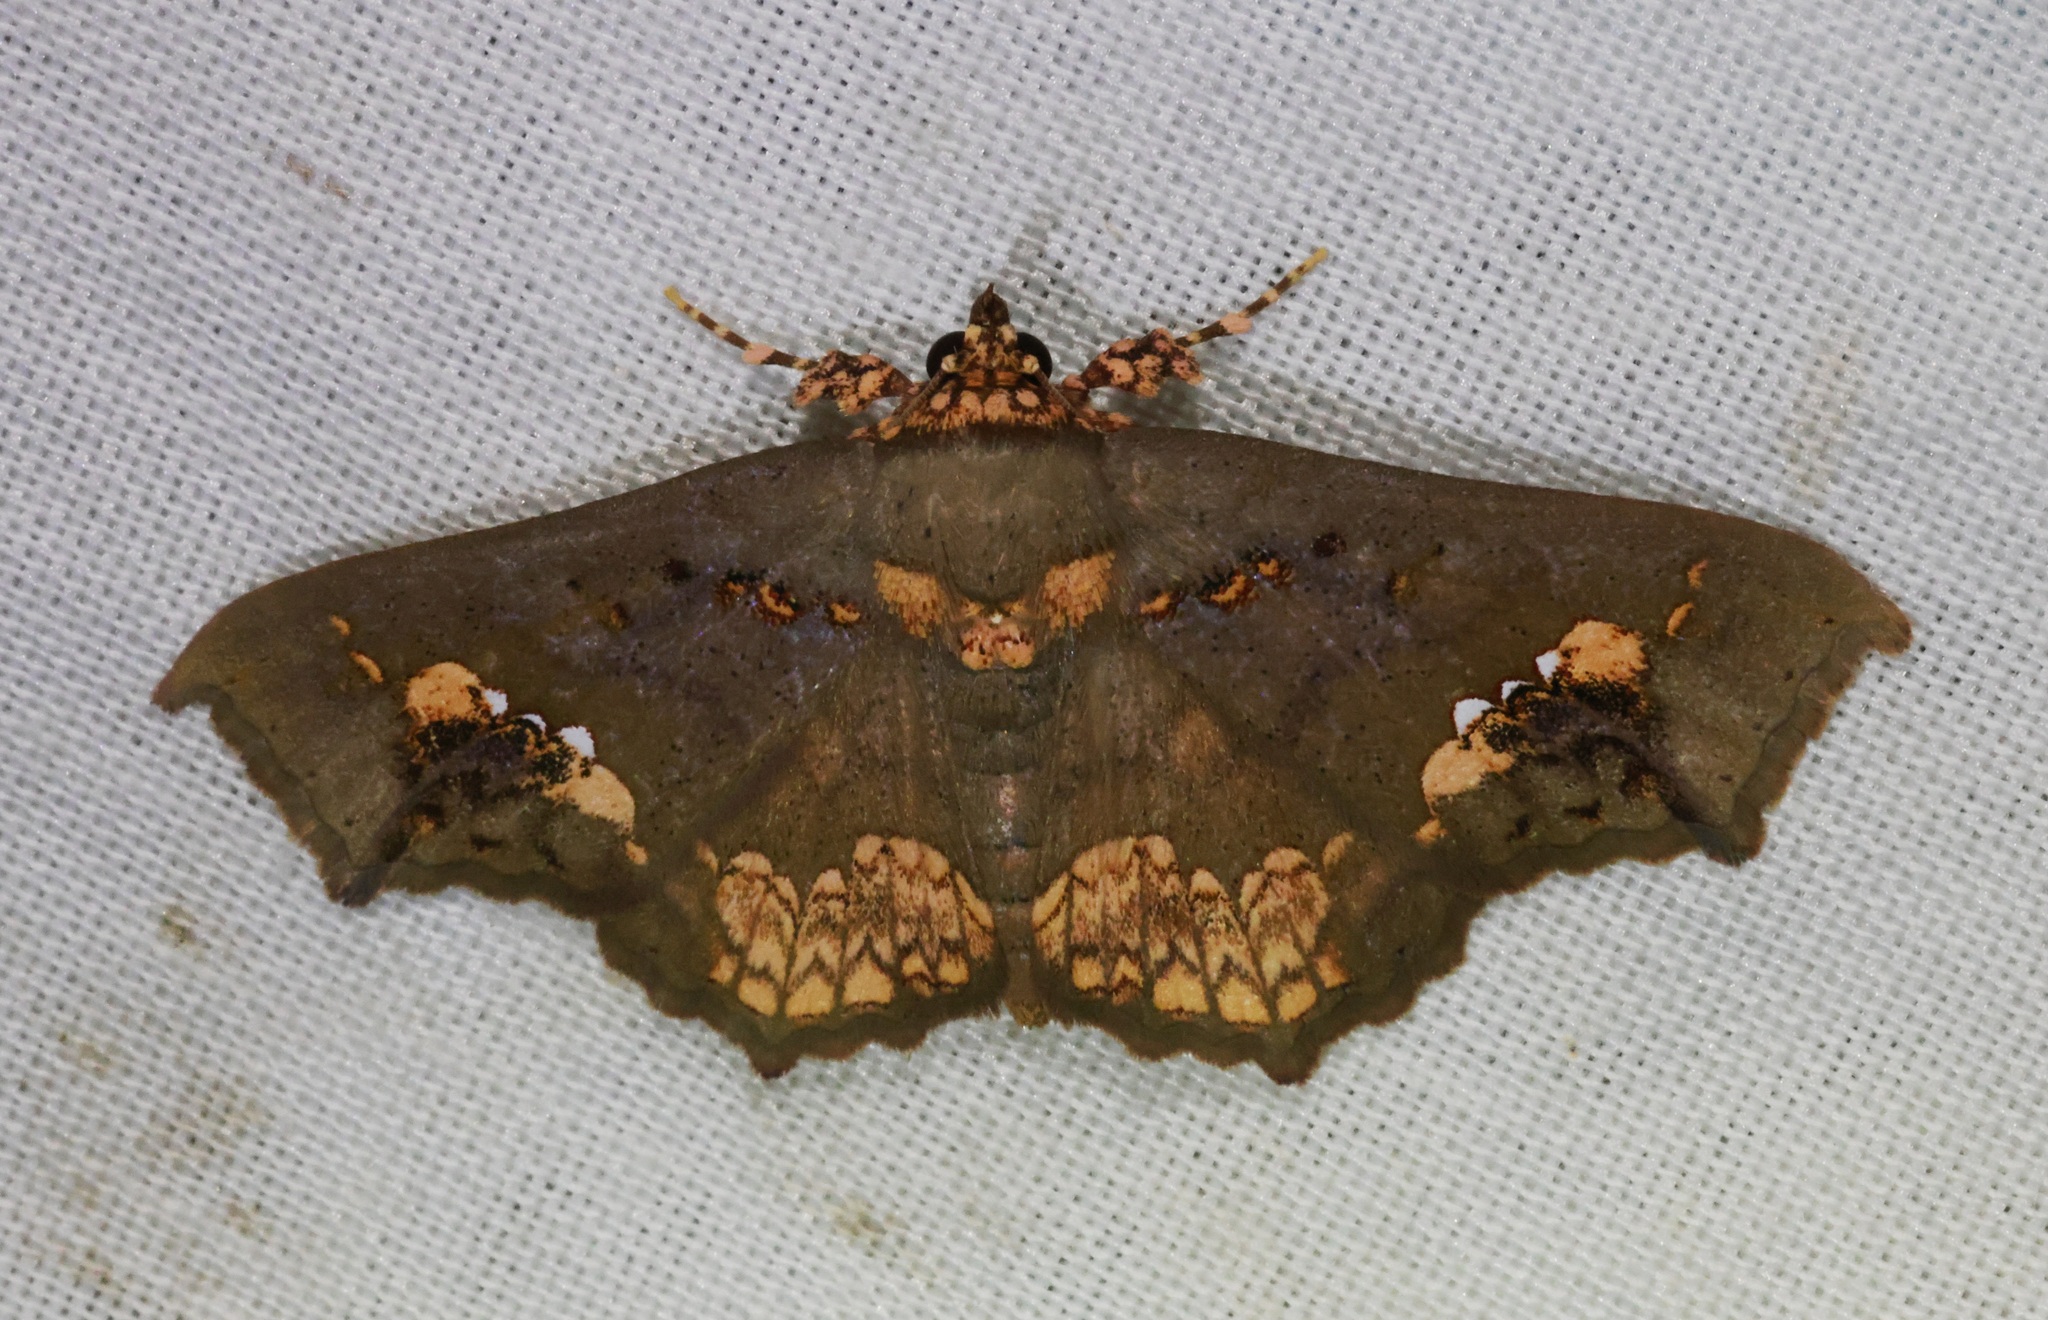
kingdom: Animalia
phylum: Arthropoda
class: Insecta
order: Lepidoptera
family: Erebidae
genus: Lopharthrum
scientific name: Lopharthrum comprimens
